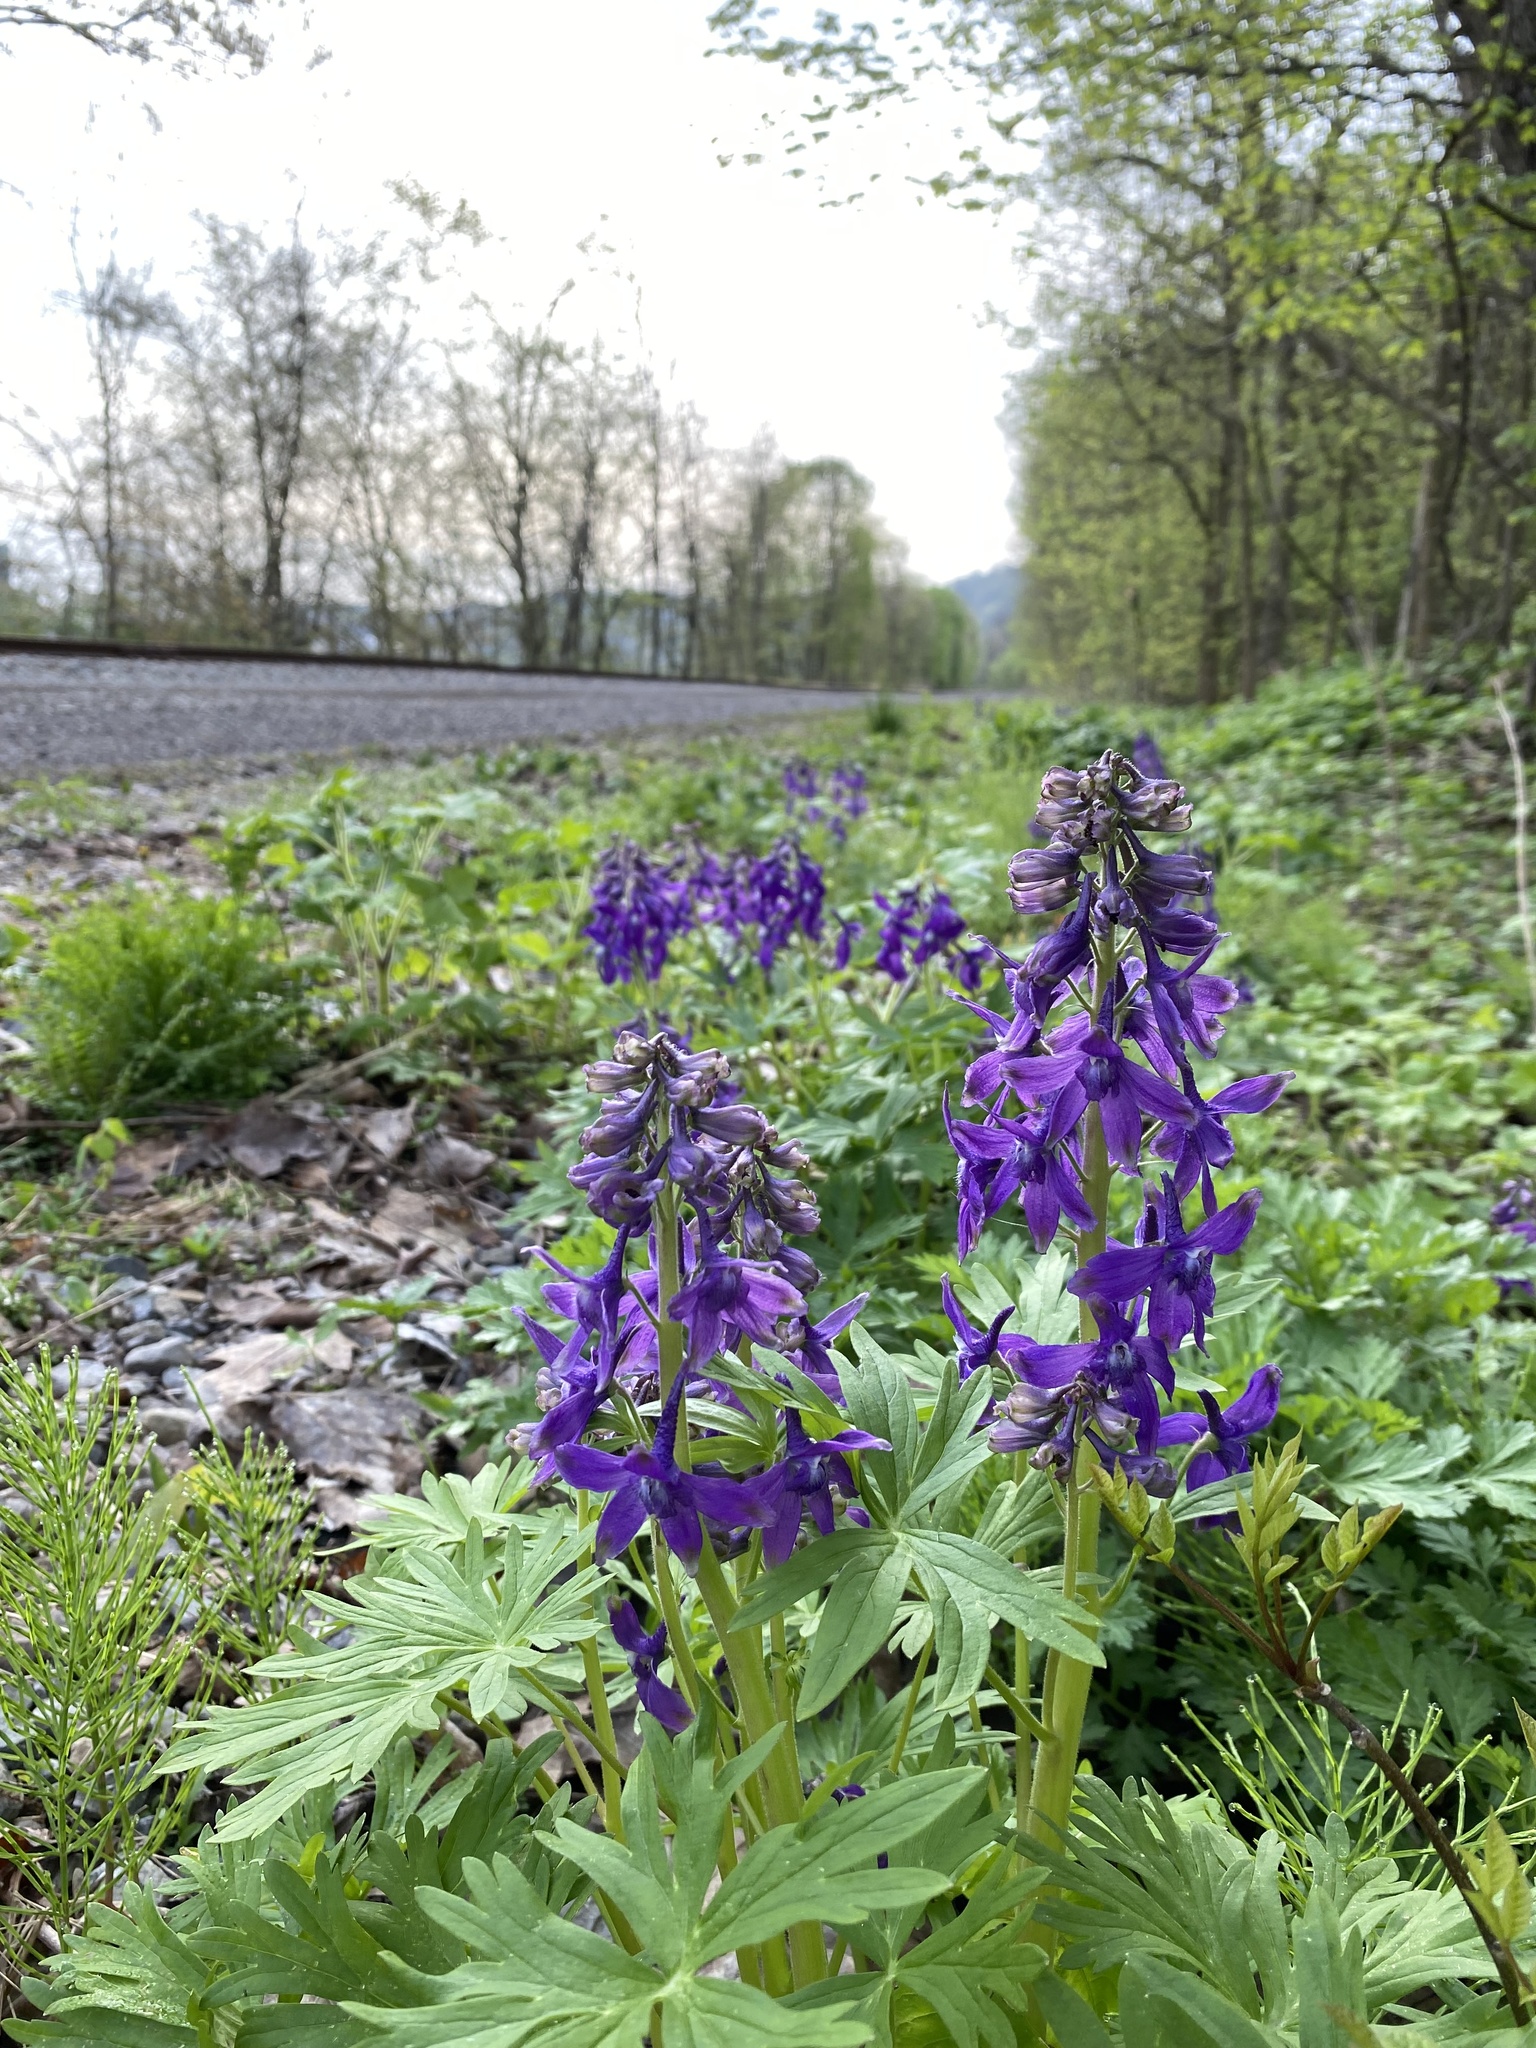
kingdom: Plantae
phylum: Tracheophyta
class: Magnoliopsida
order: Ranunculales
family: Ranunculaceae
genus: Delphinium
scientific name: Delphinium tricorne
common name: Dwarf larkspur
